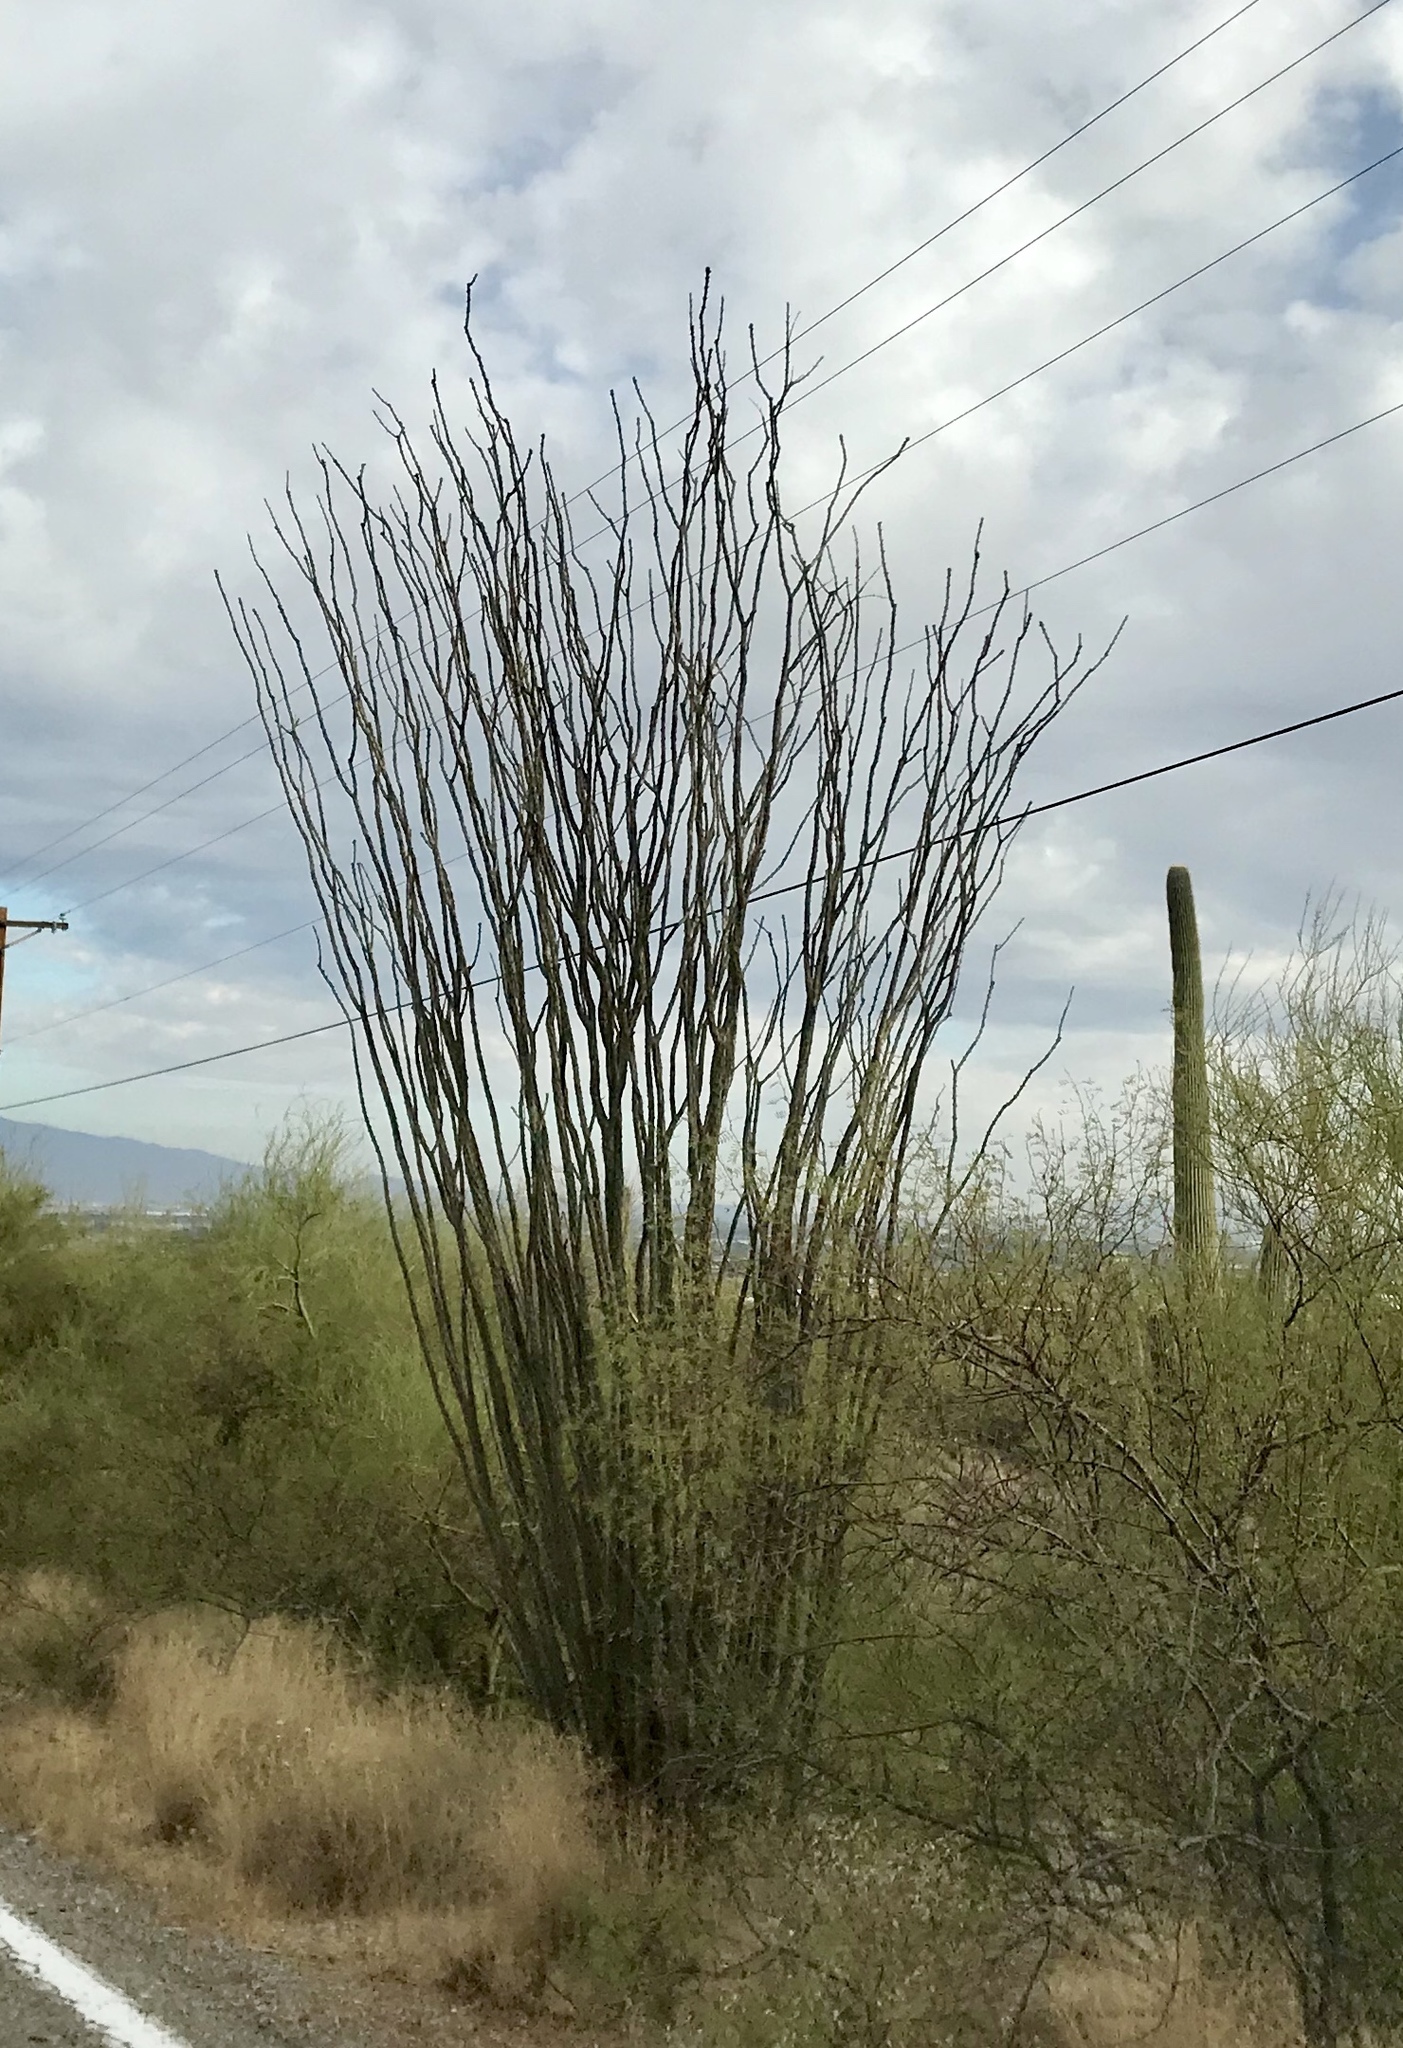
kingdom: Plantae
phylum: Tracheophyta
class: Magnoliopsida
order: Ericales
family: Fouquieriaceae
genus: Fouquieria
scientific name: Fouquieria splendens
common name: Vine-cactus
